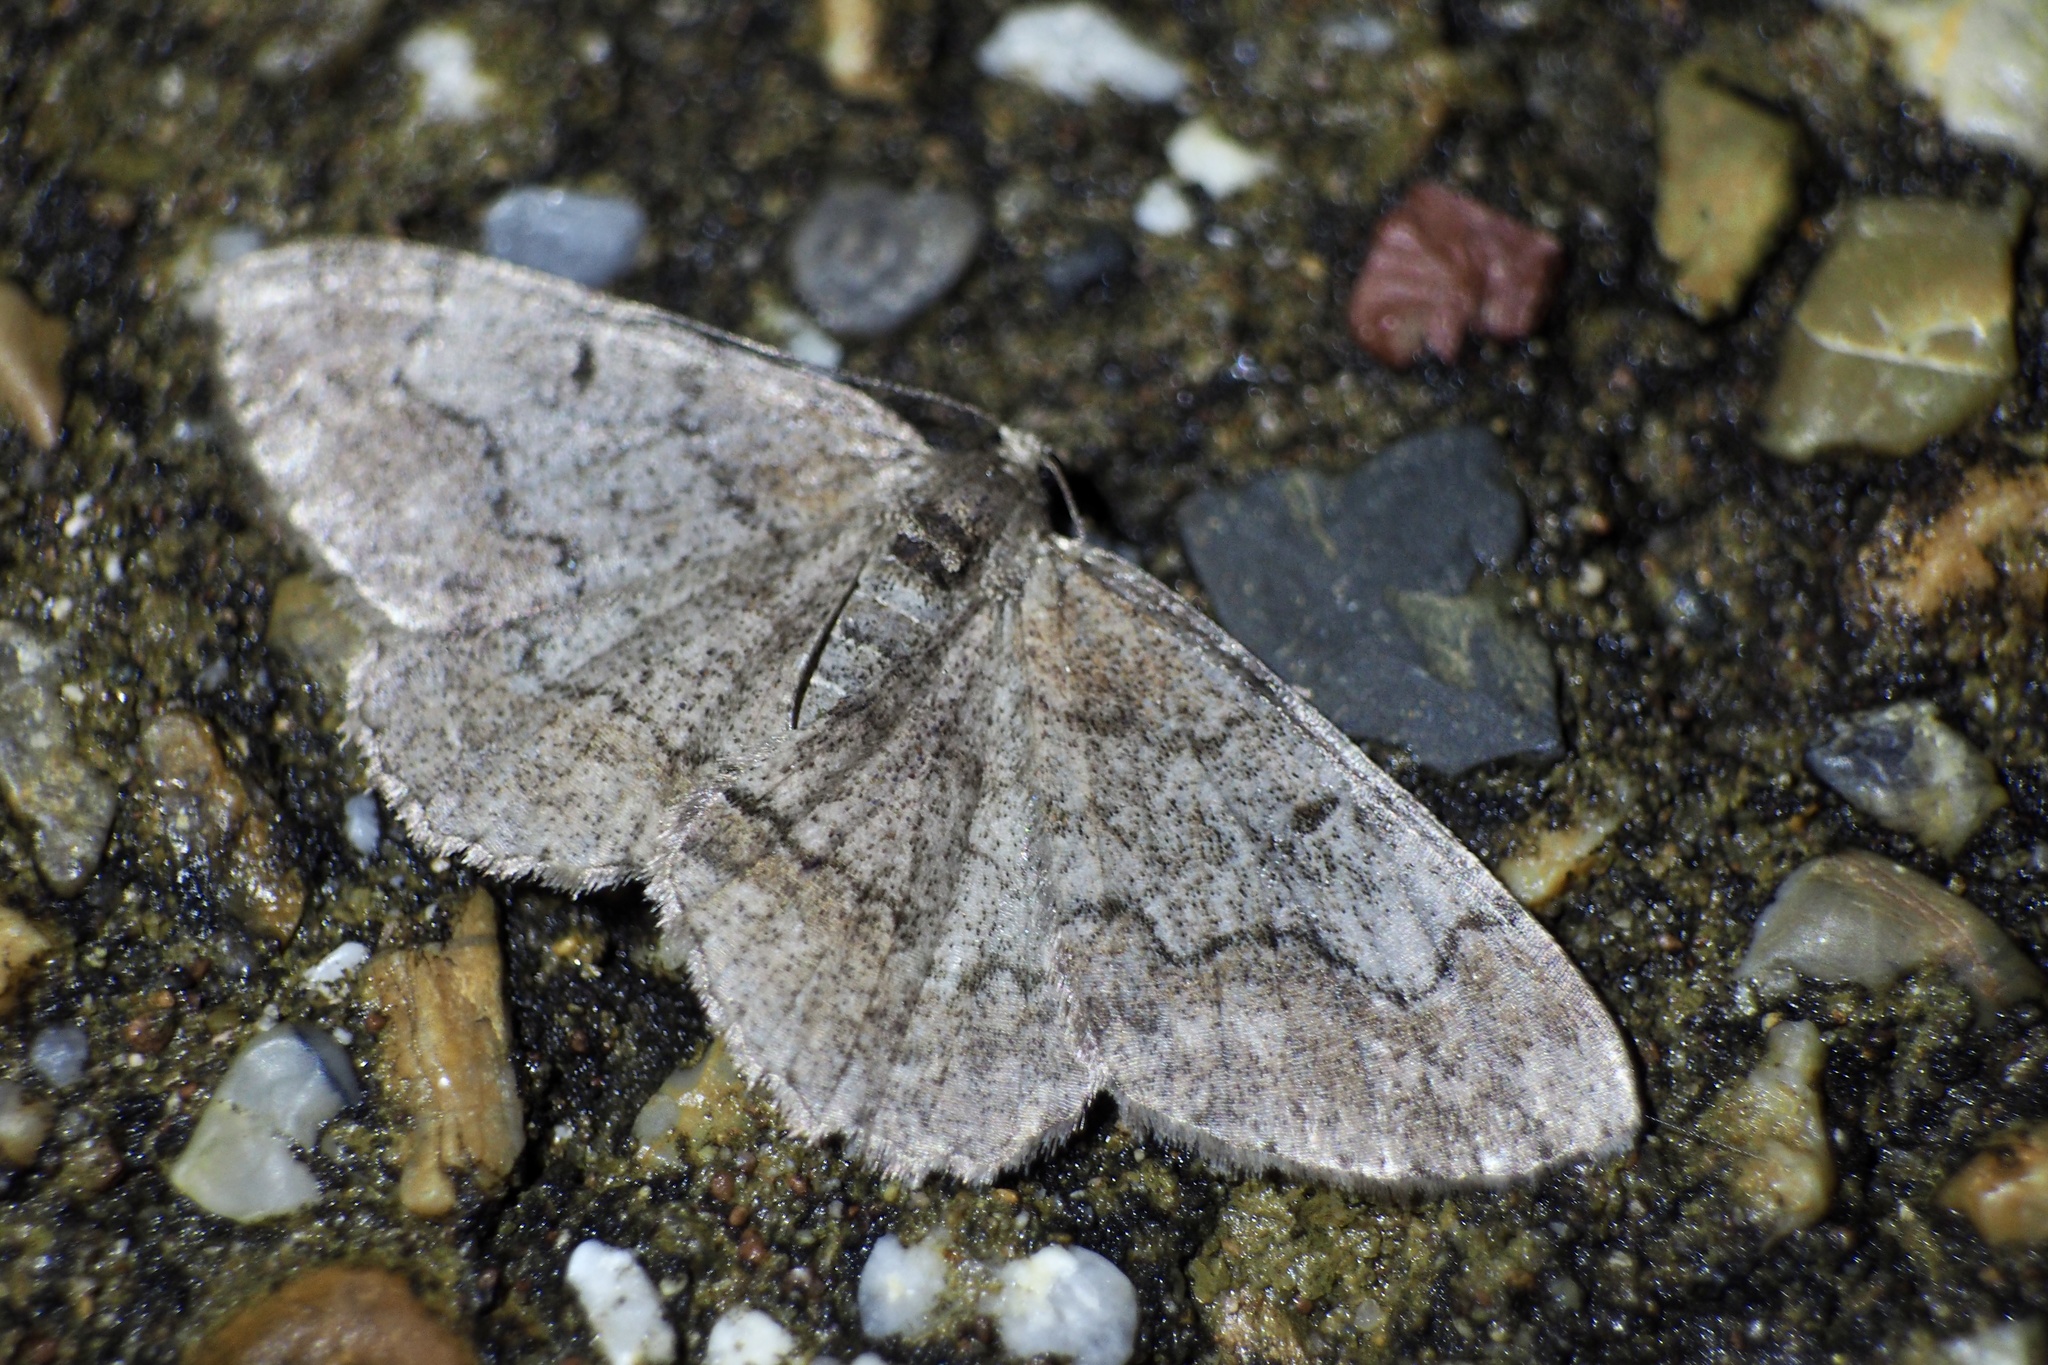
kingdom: Animalia
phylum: Arthropoda
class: Insecta
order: Lepidoptera
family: Geometridae
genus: Rikiosatoa
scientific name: Rikiosatoa grisea
